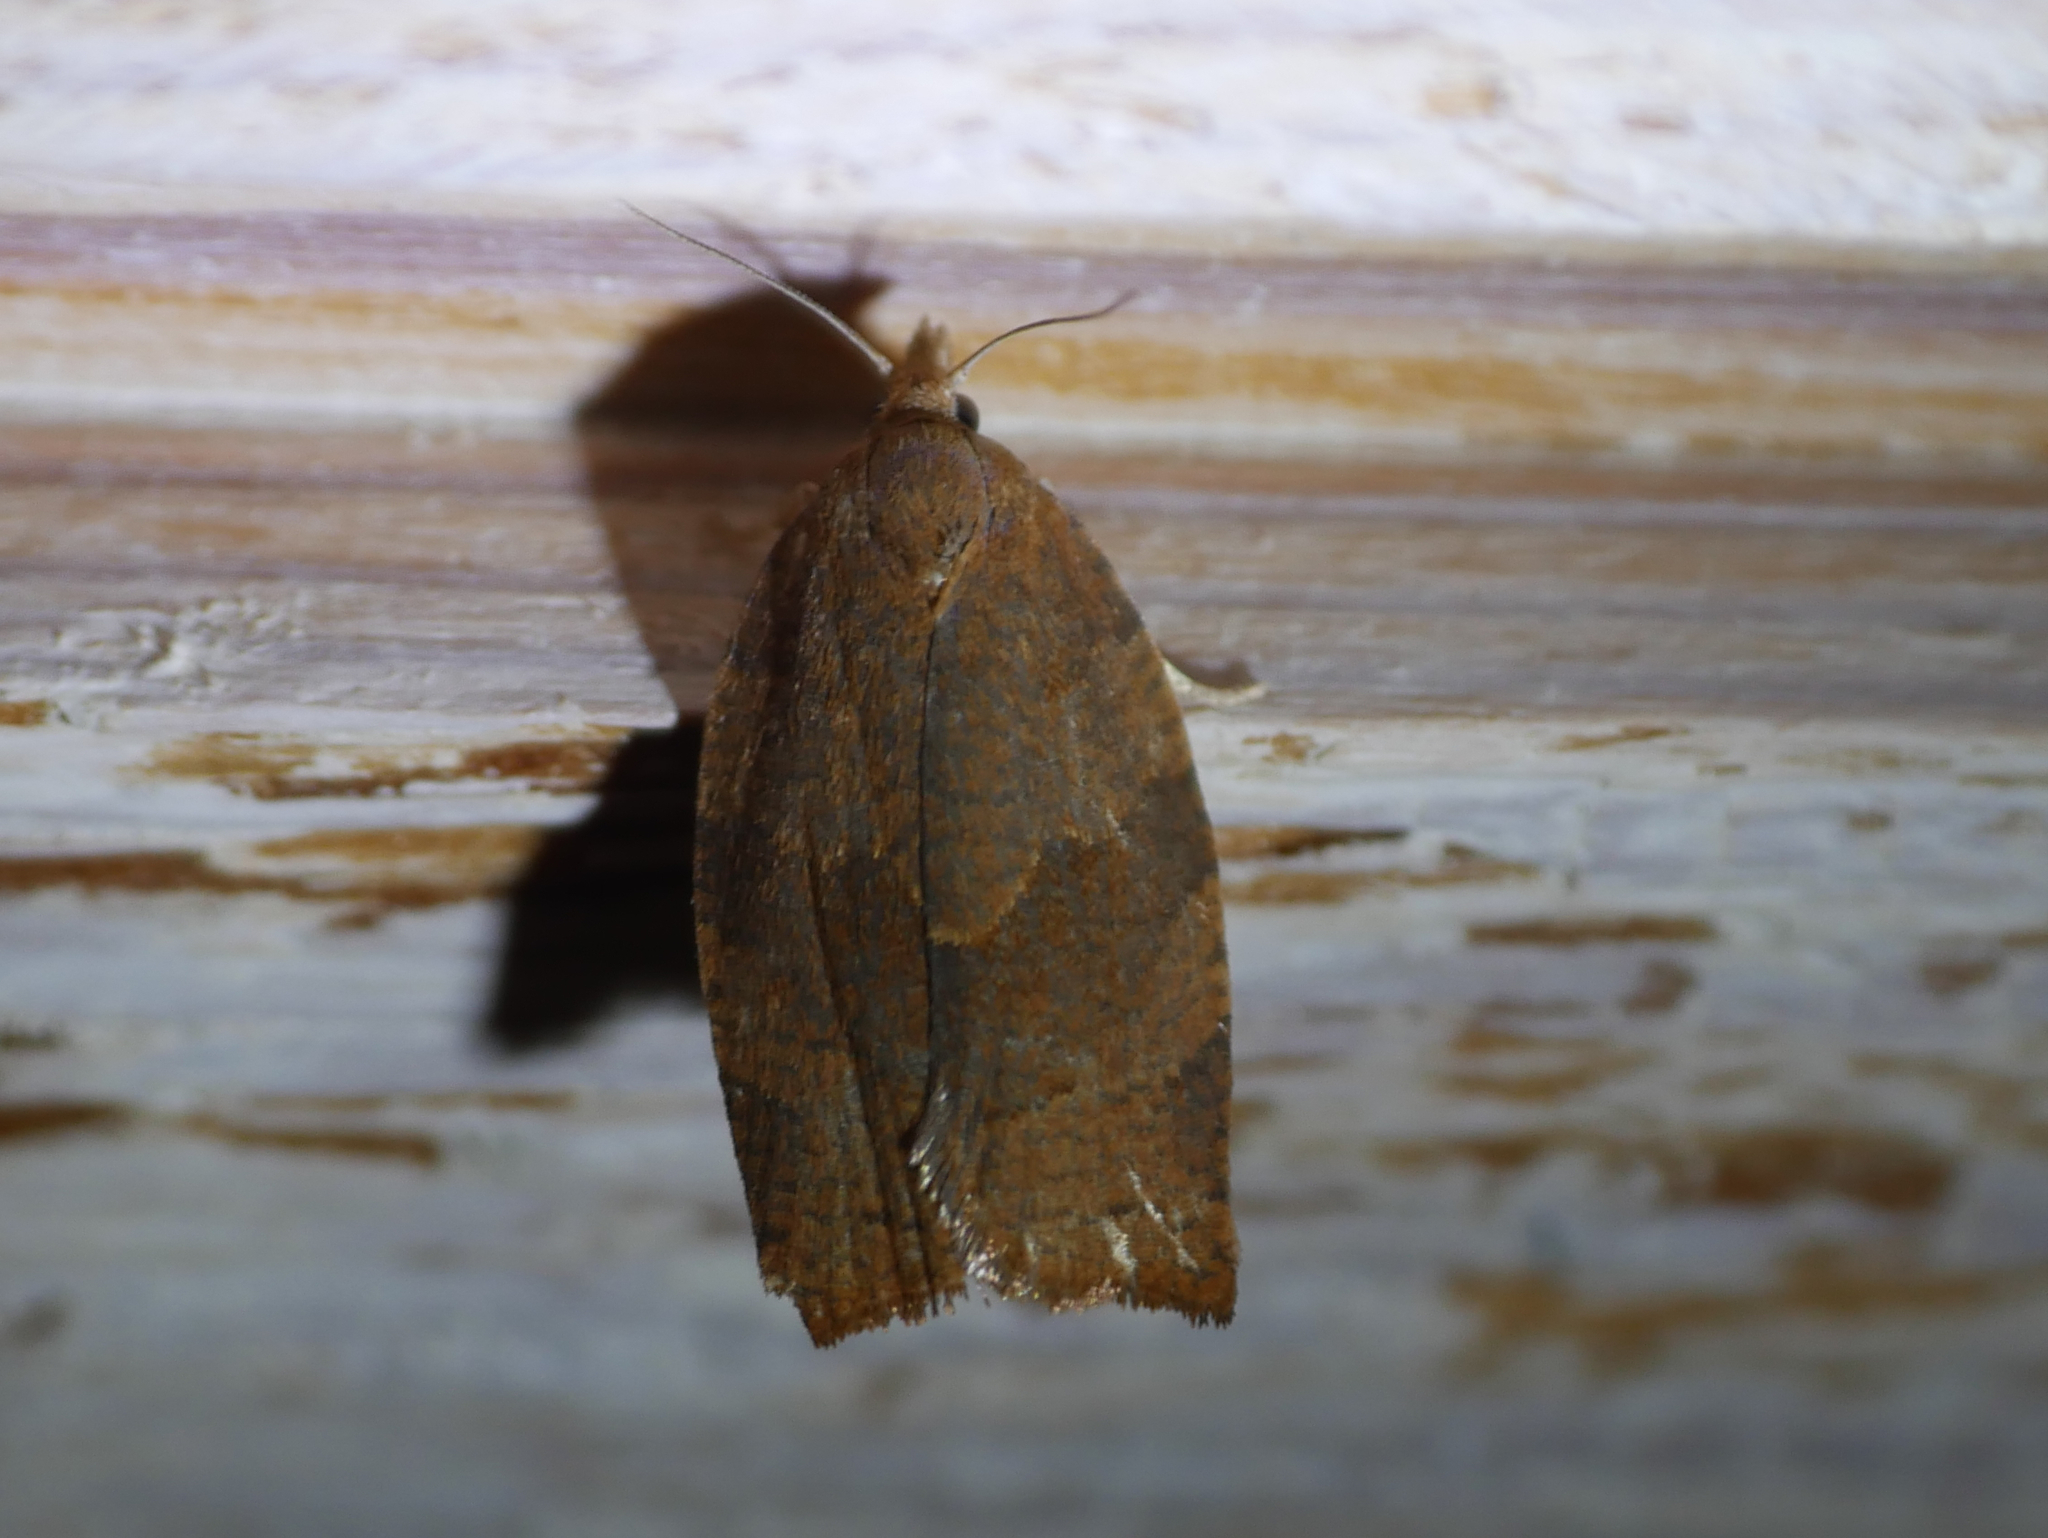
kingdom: Animalia
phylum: Arthropoda
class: Insecta
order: Lepidoptera
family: Tortricidae
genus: Pandemis
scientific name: Pandemis heparana
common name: Dark fruit-tree tortrix
